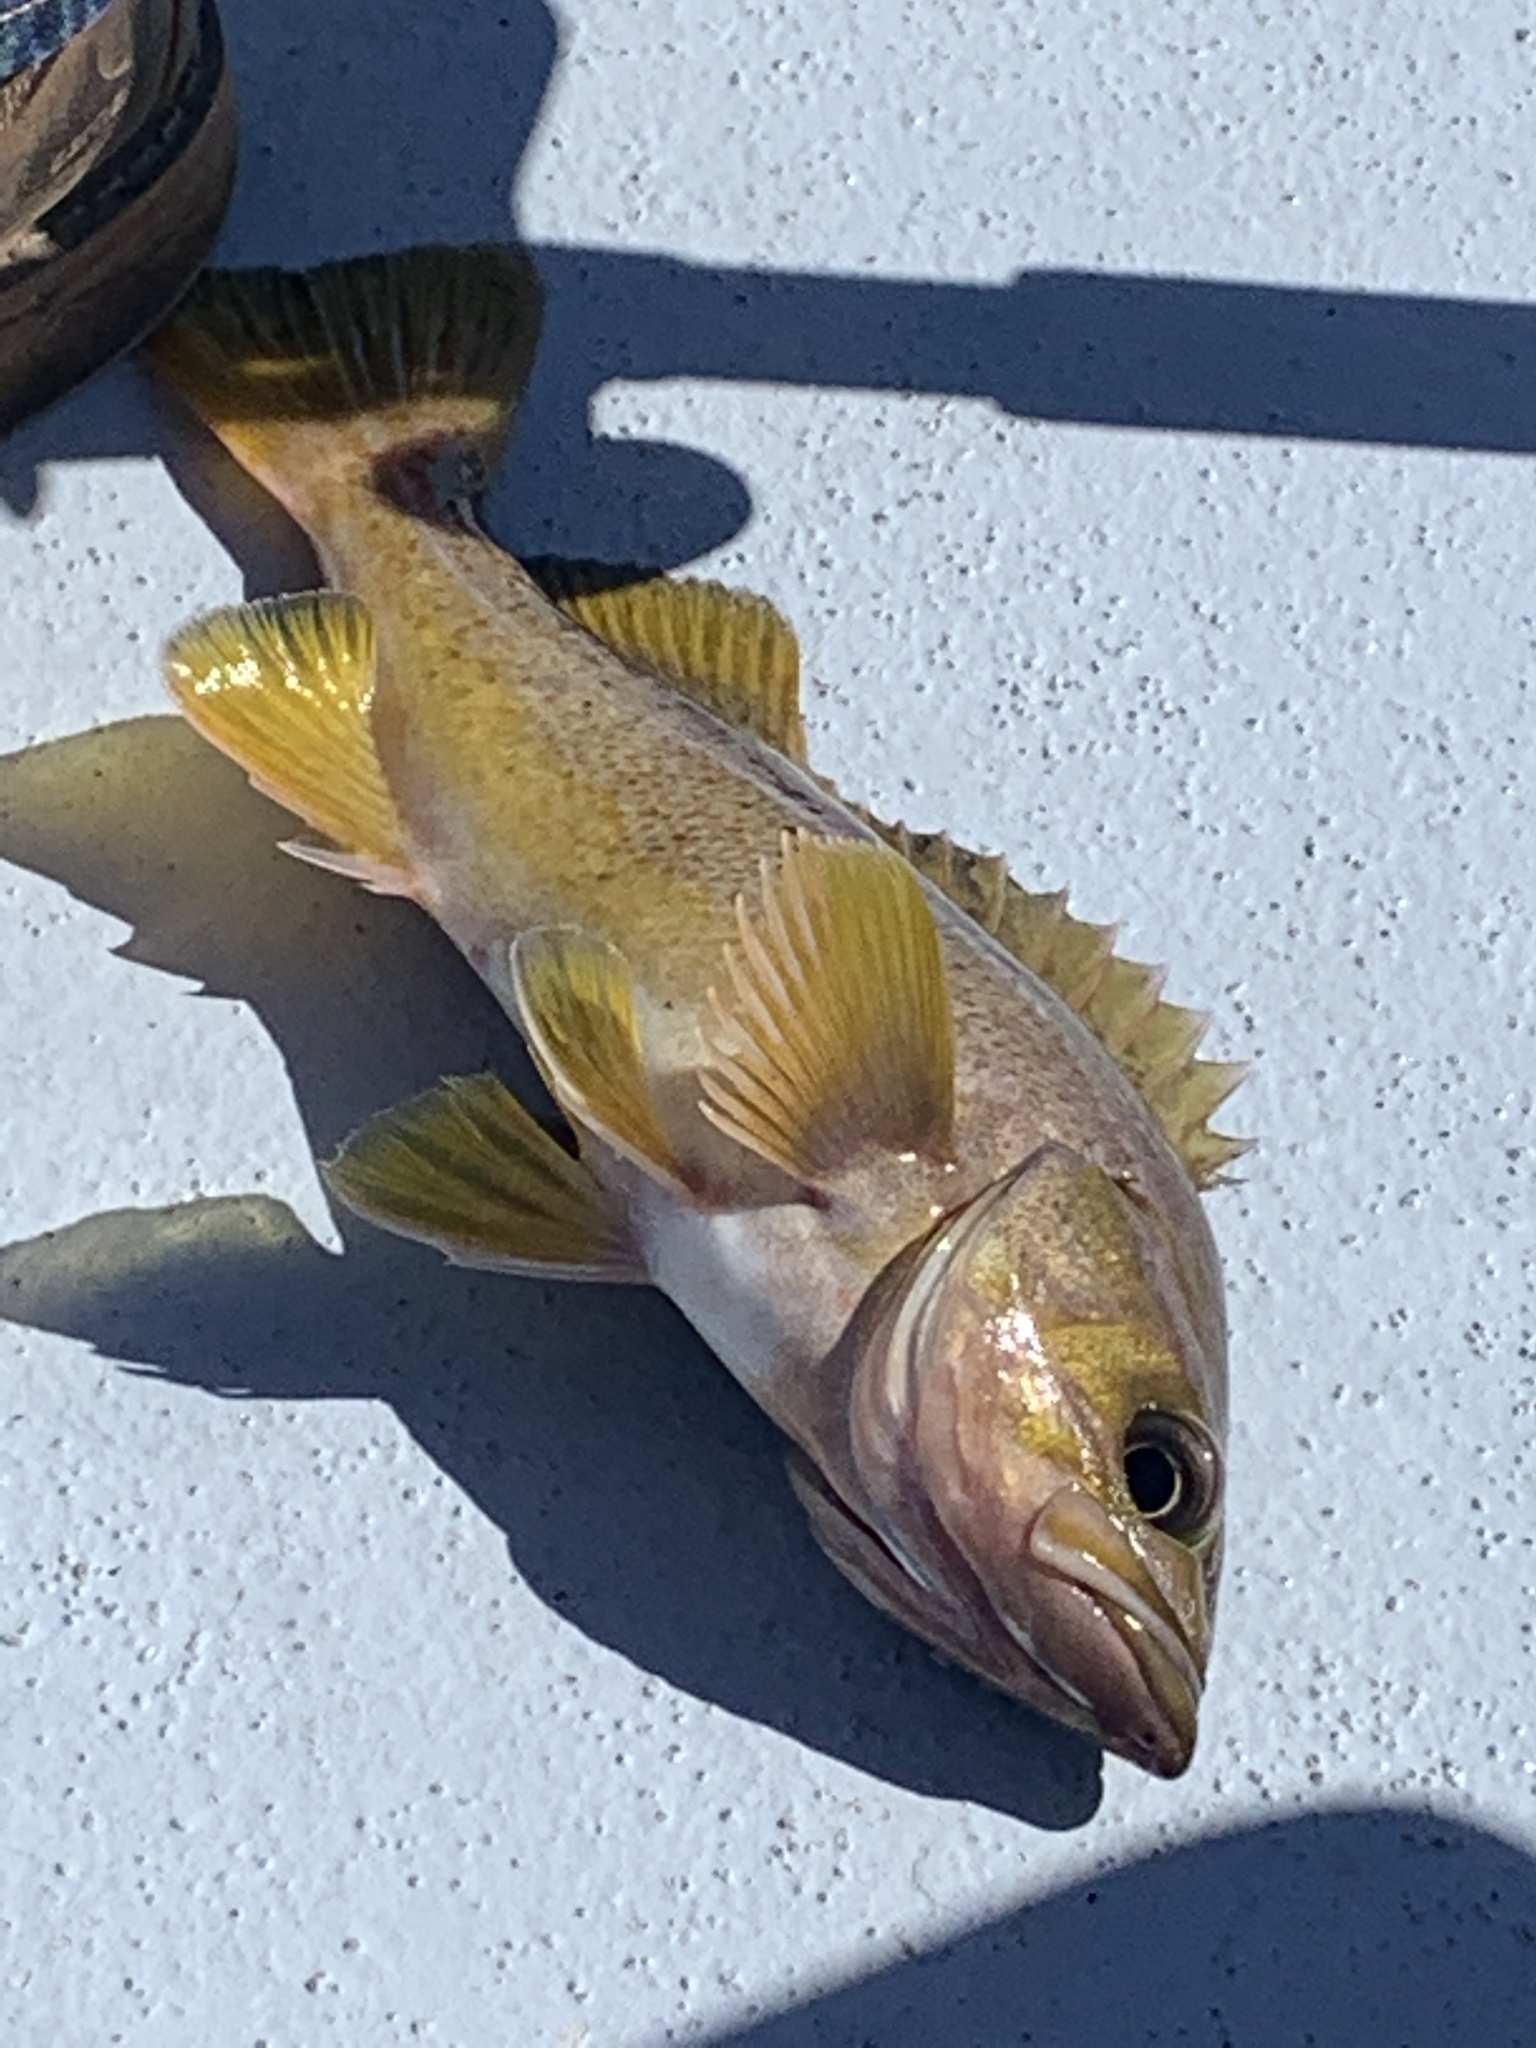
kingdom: Animalia
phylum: Chordata
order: Scorpaeniformes
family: Sebastidae
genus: Sebastes
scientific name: Sebastes flavidus
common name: Yellowtail rockfish
